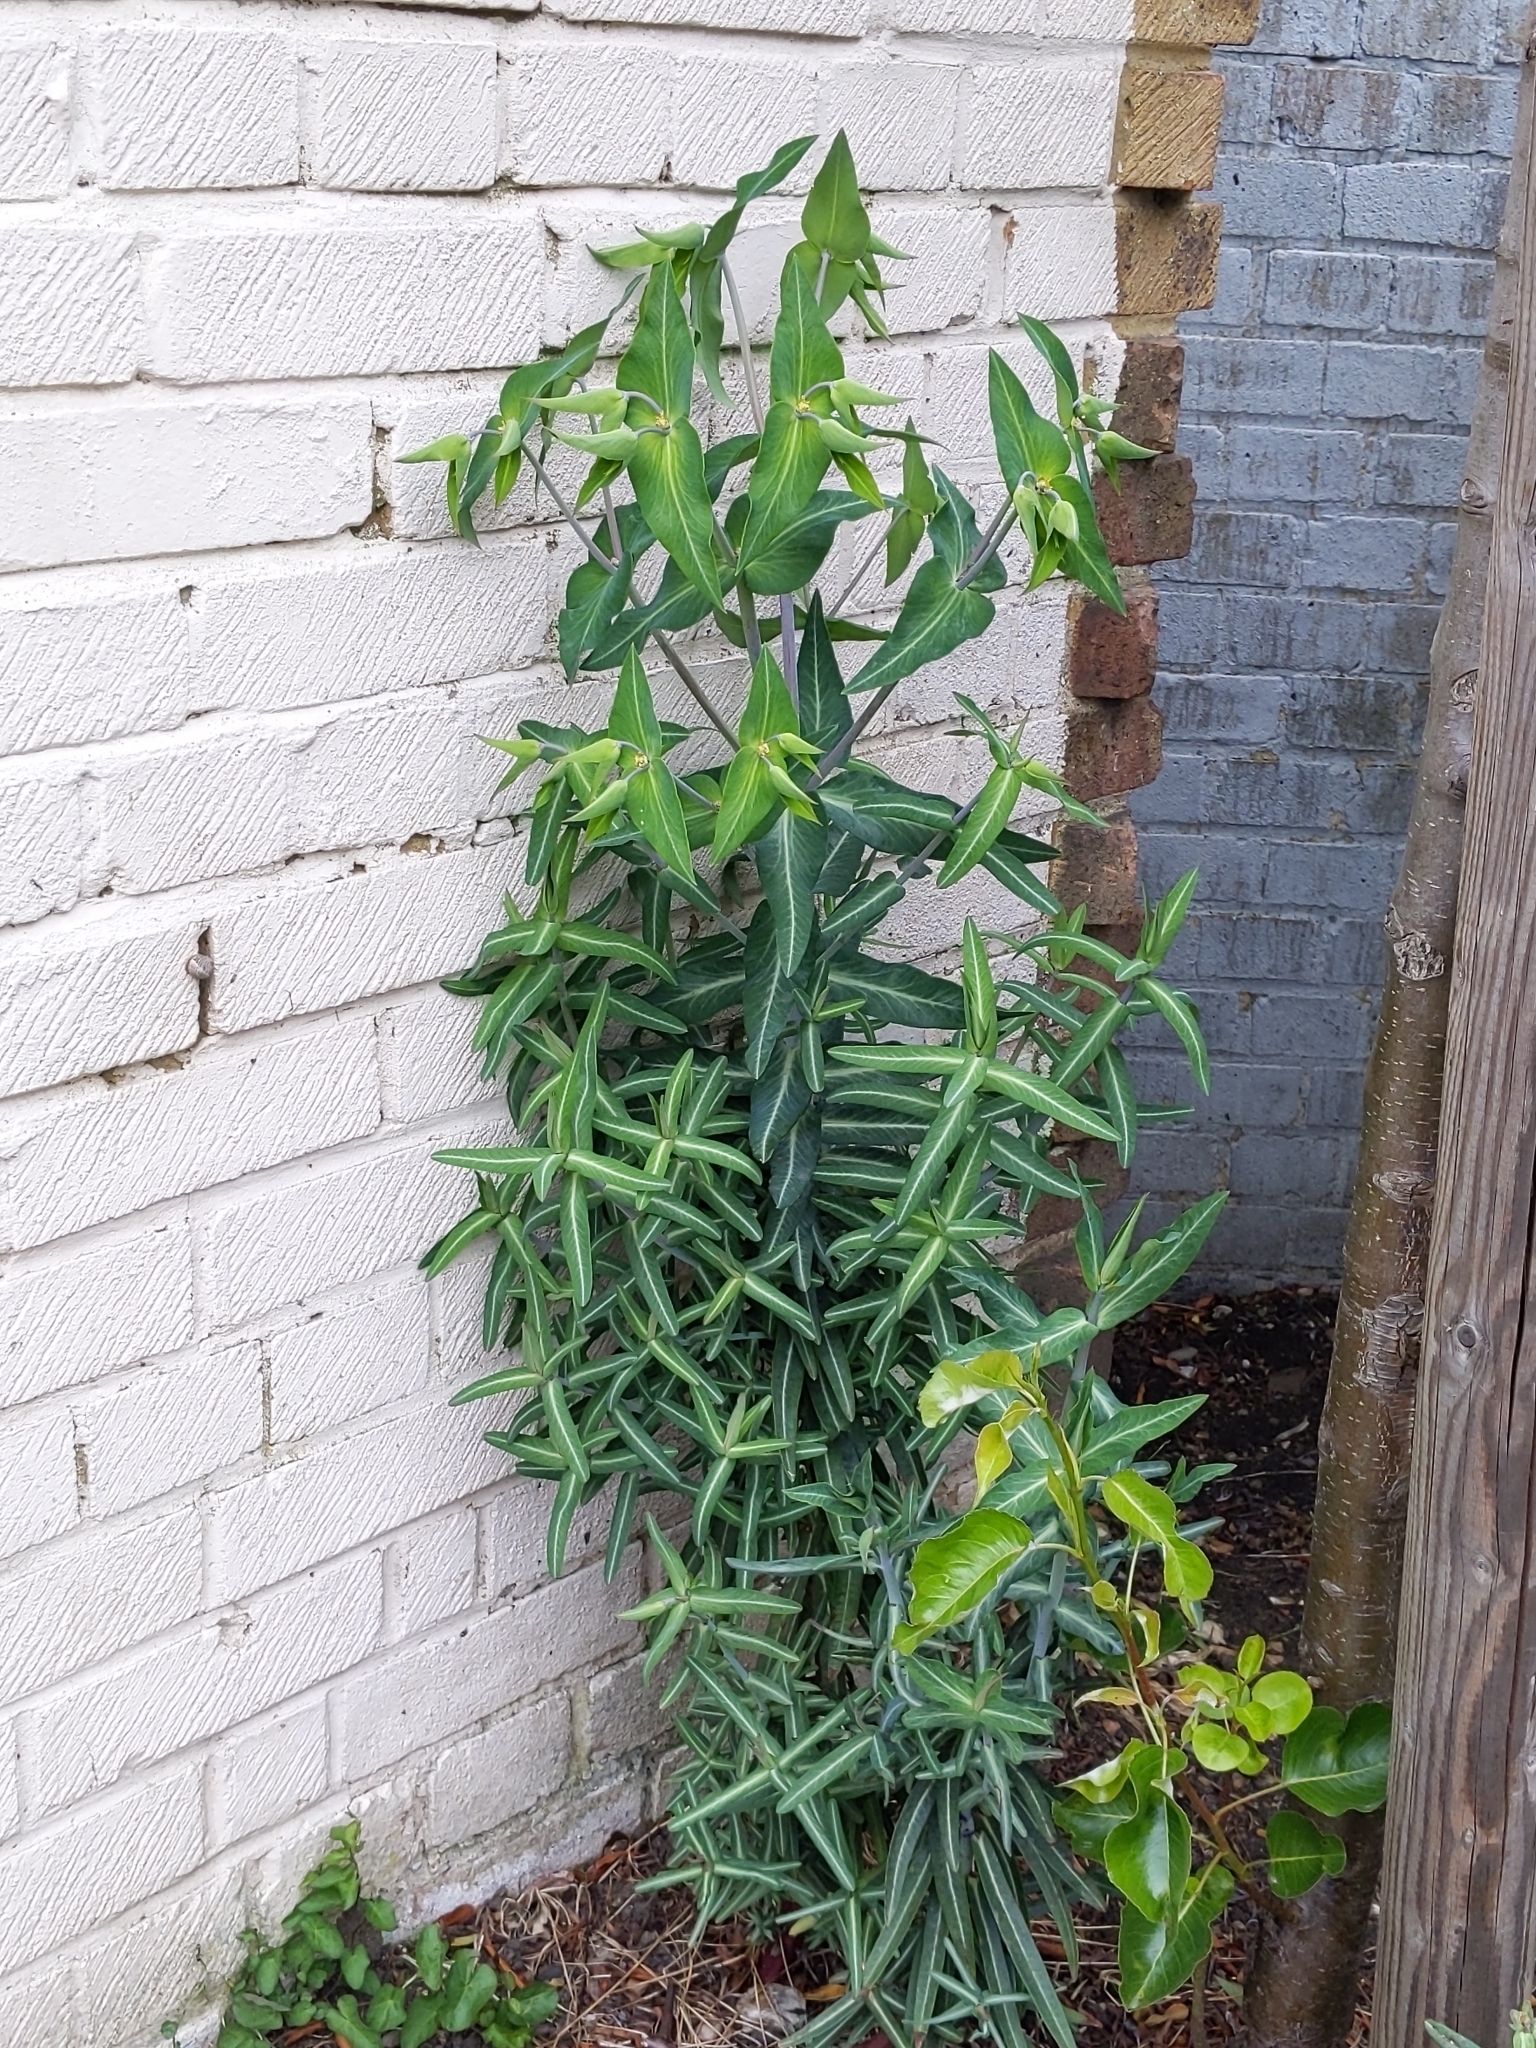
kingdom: Plantae
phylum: Tracheophyta
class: Magnoliopsida
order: Malpighiales
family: Euphorbiaceae
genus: Euphorbia
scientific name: Euphorbia lathyris
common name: Caper spurge
